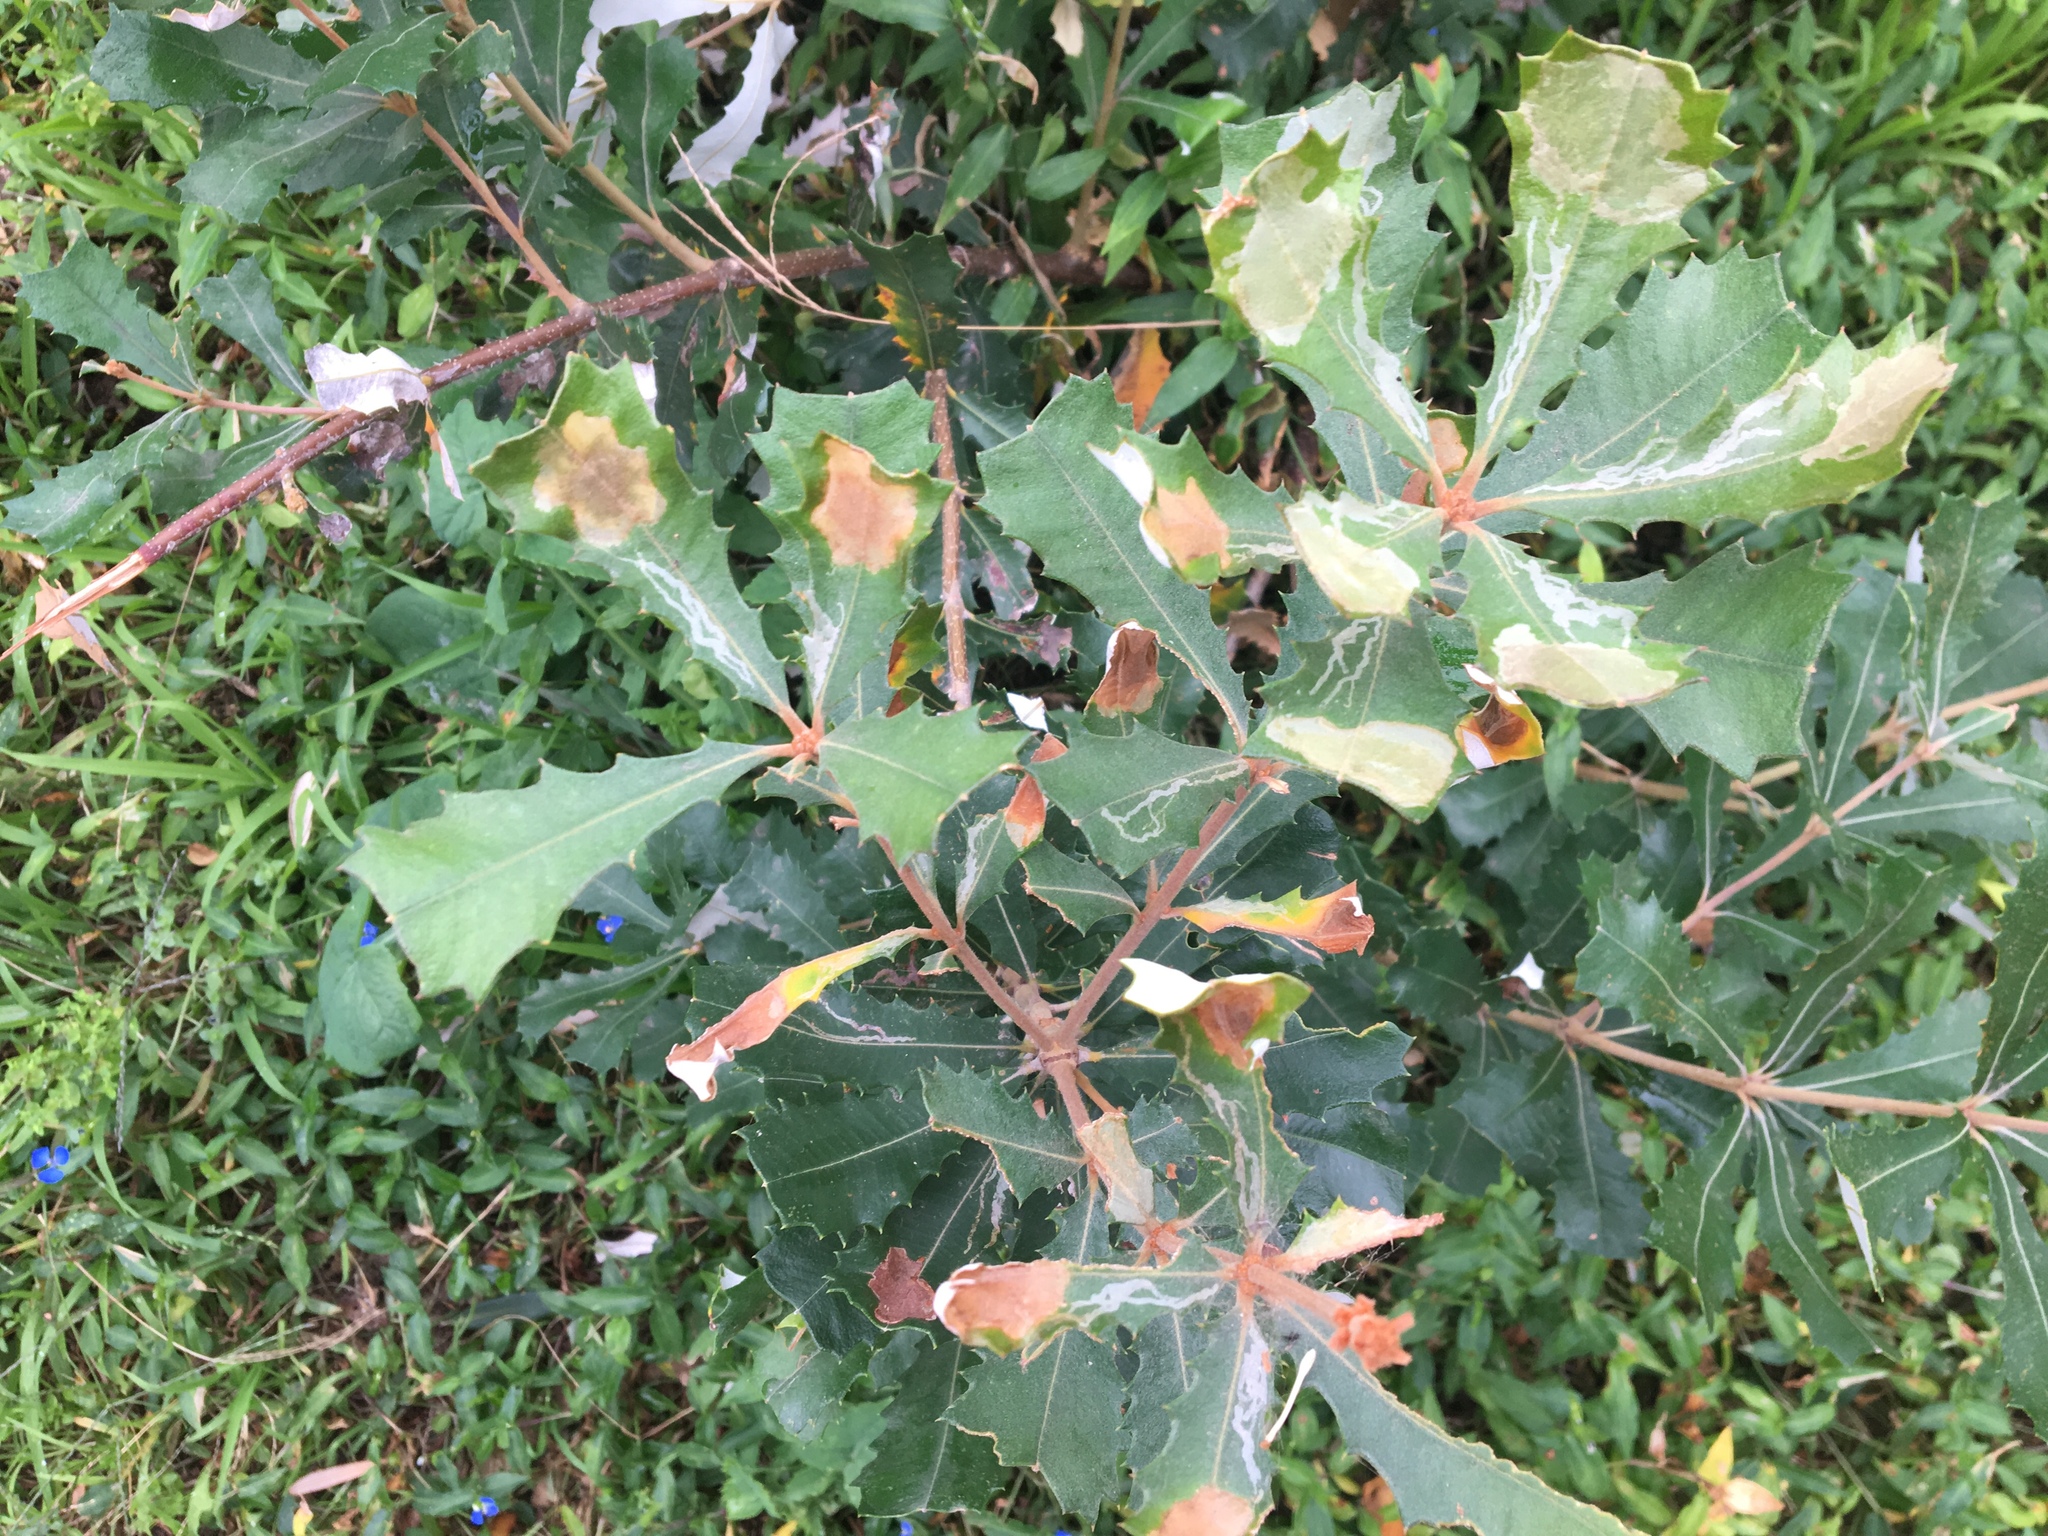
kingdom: Plantae
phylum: Tracheophyta
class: Magnoliopsida
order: Proteales
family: Proteaceae
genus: Banksia
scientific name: Banksia oblongifolia
